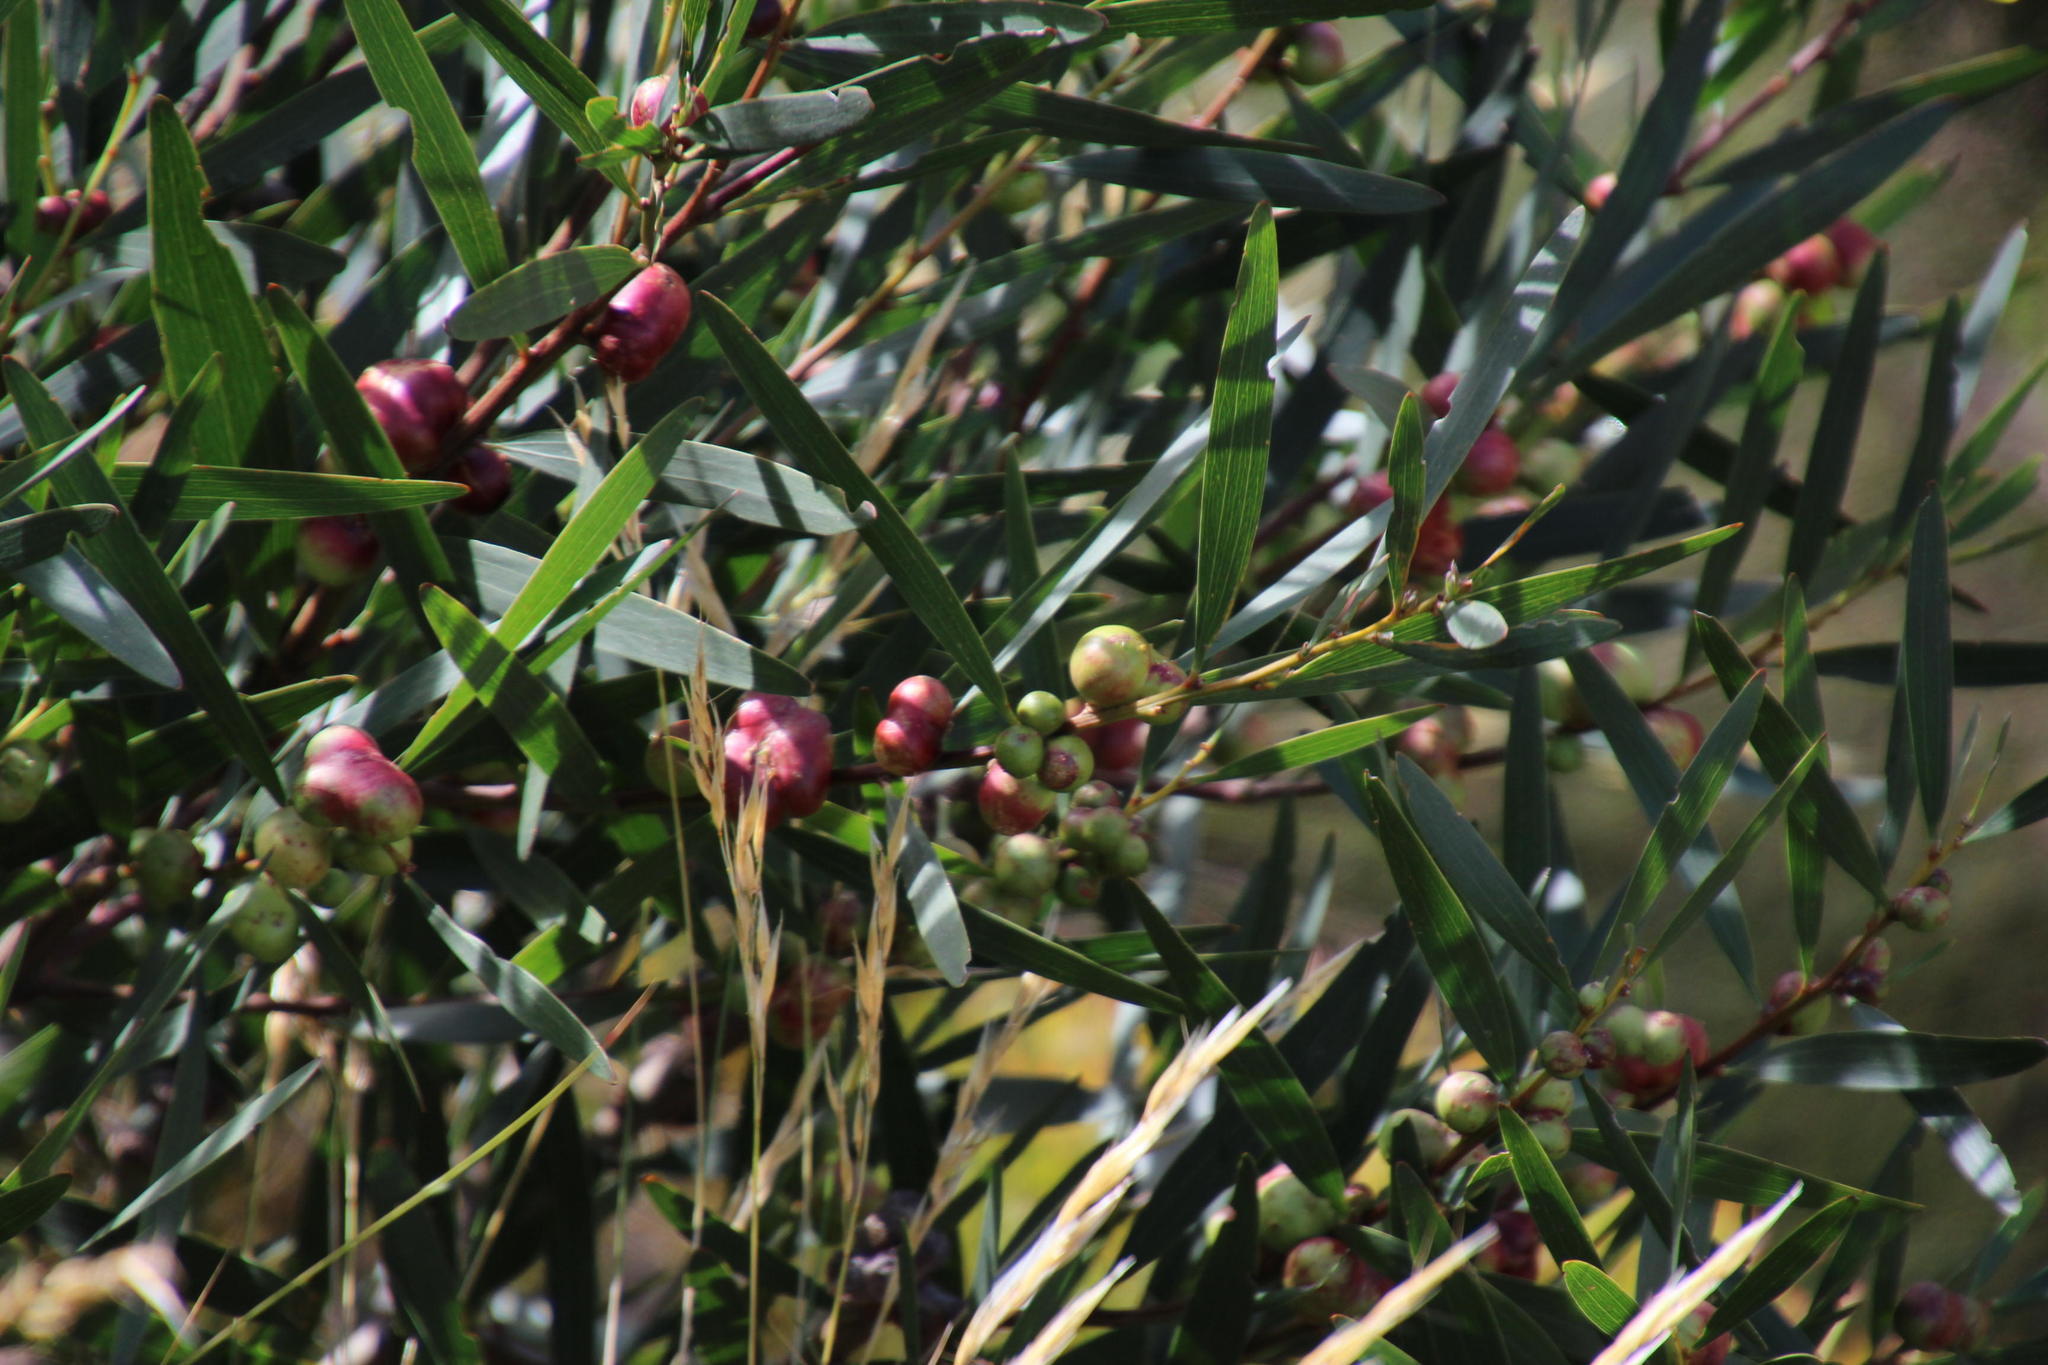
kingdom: Plantae
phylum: Tracheophyta
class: Magnoliopsida
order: Fabales
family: Fabaceae
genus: Acacia
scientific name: Acacia longifolia
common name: Sydney golden wattle
